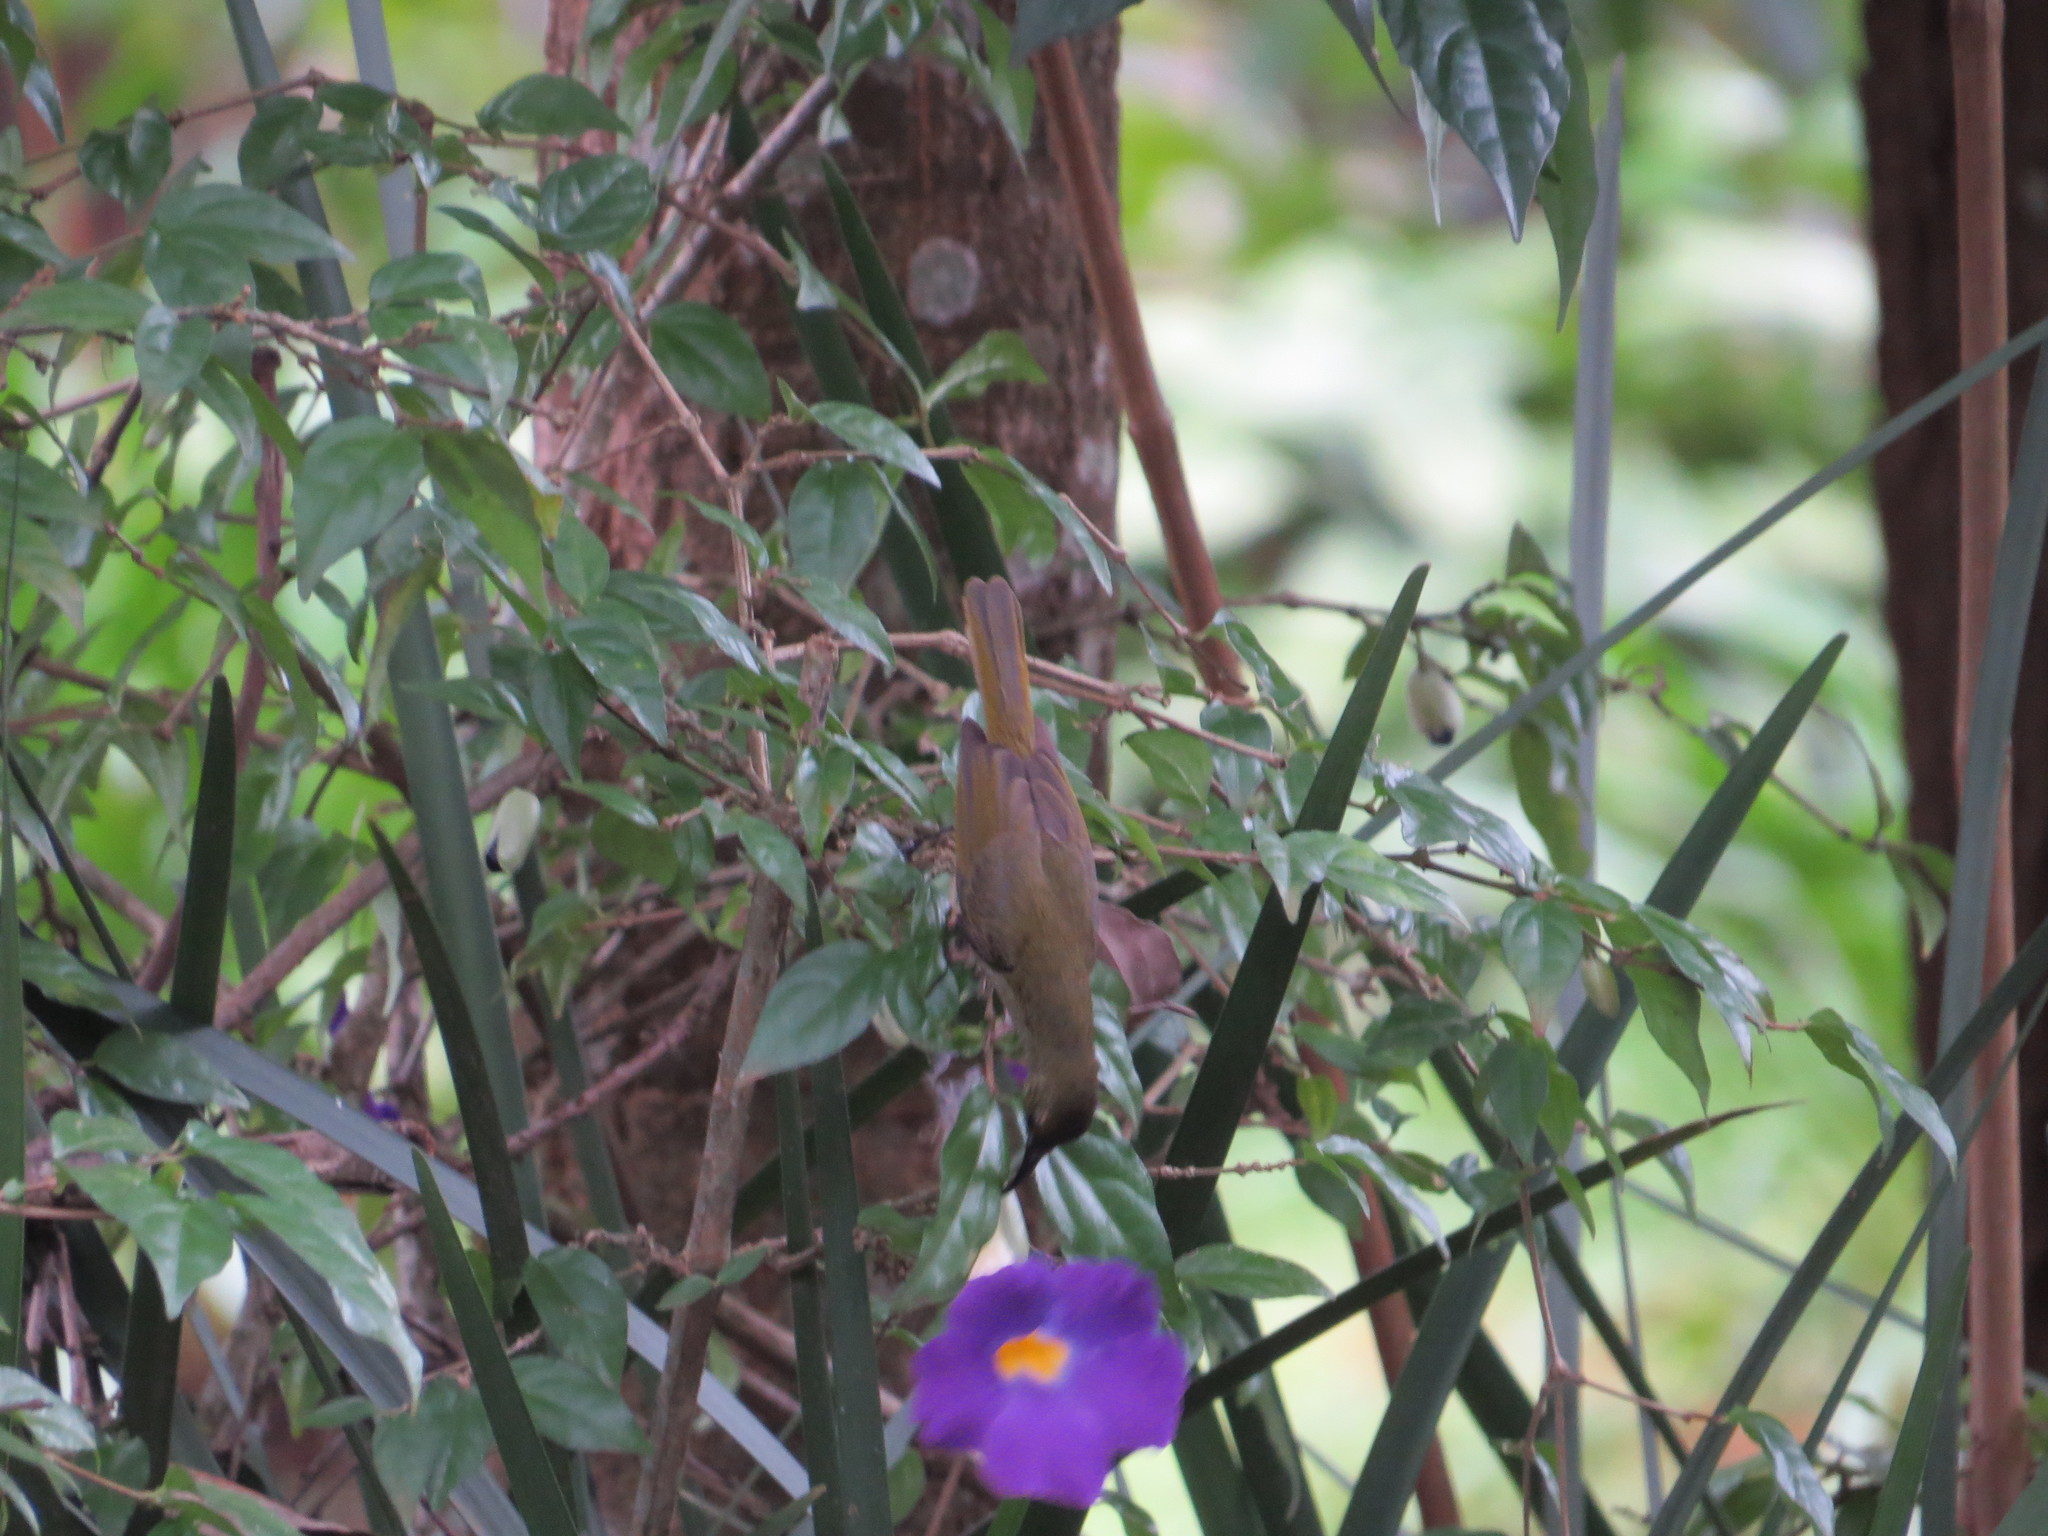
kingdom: Animalia
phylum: Chordata
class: Aves
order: Passeriformes
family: Nectariniidae
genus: Cyanomitra
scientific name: Cyanomitra olivacea
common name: Olive sunbird
